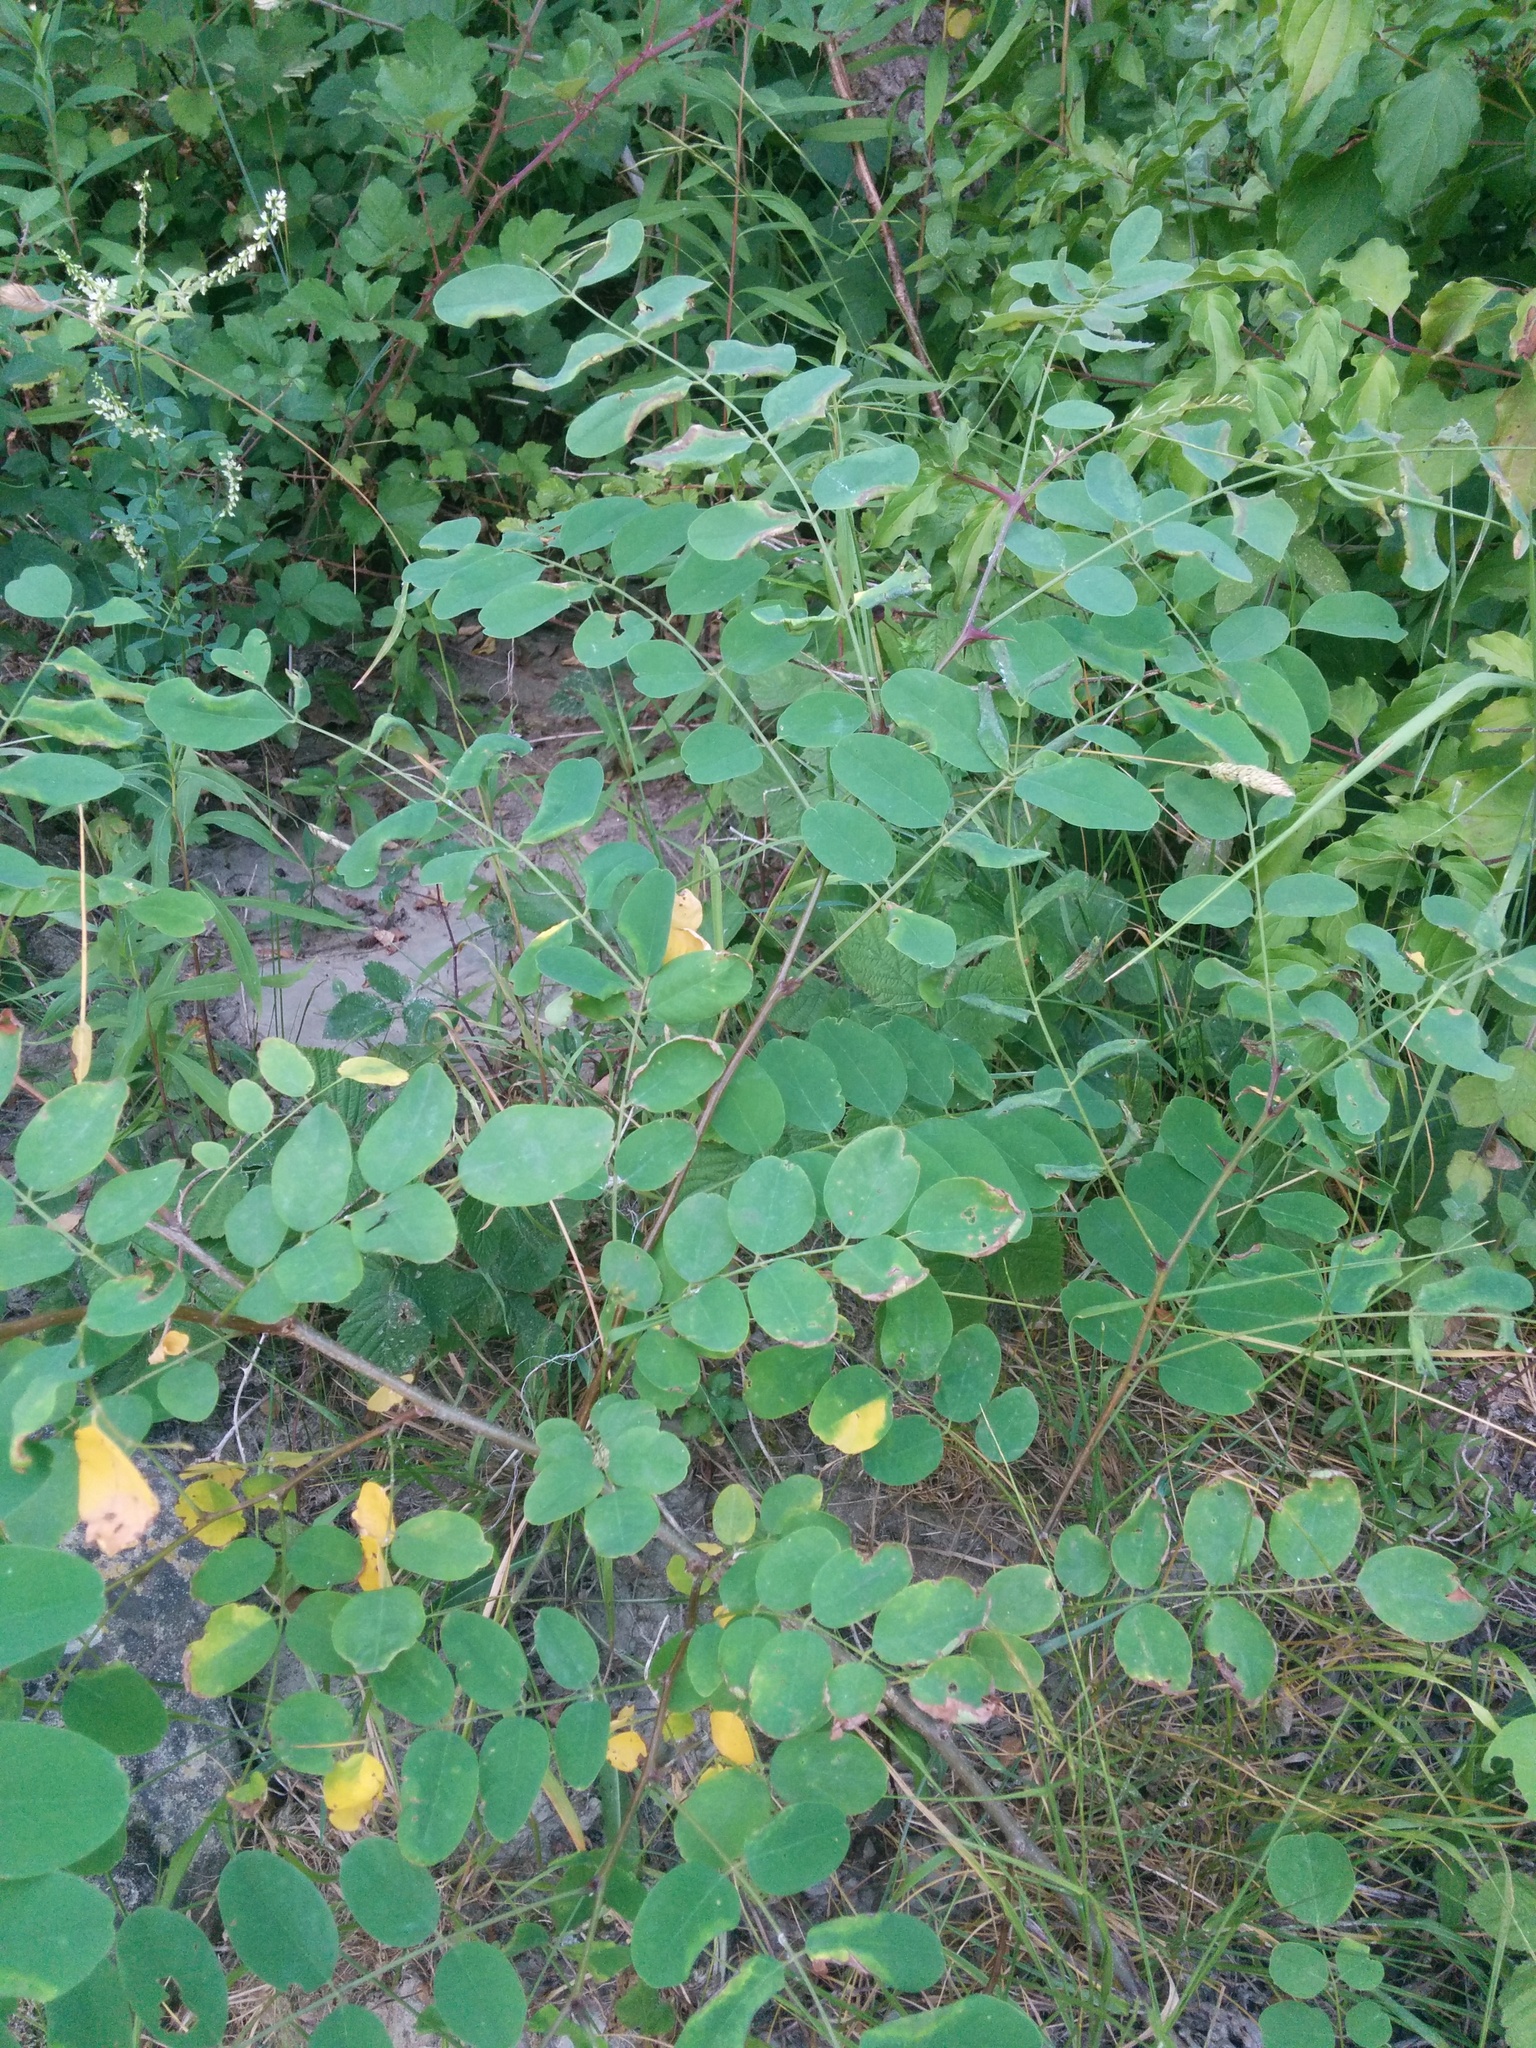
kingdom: Plantae
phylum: Tracheophyta
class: Magnoliopsida
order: Fabales
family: Fabaceae
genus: Robinia
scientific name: Robinia pseudoacacia
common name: Black locust
